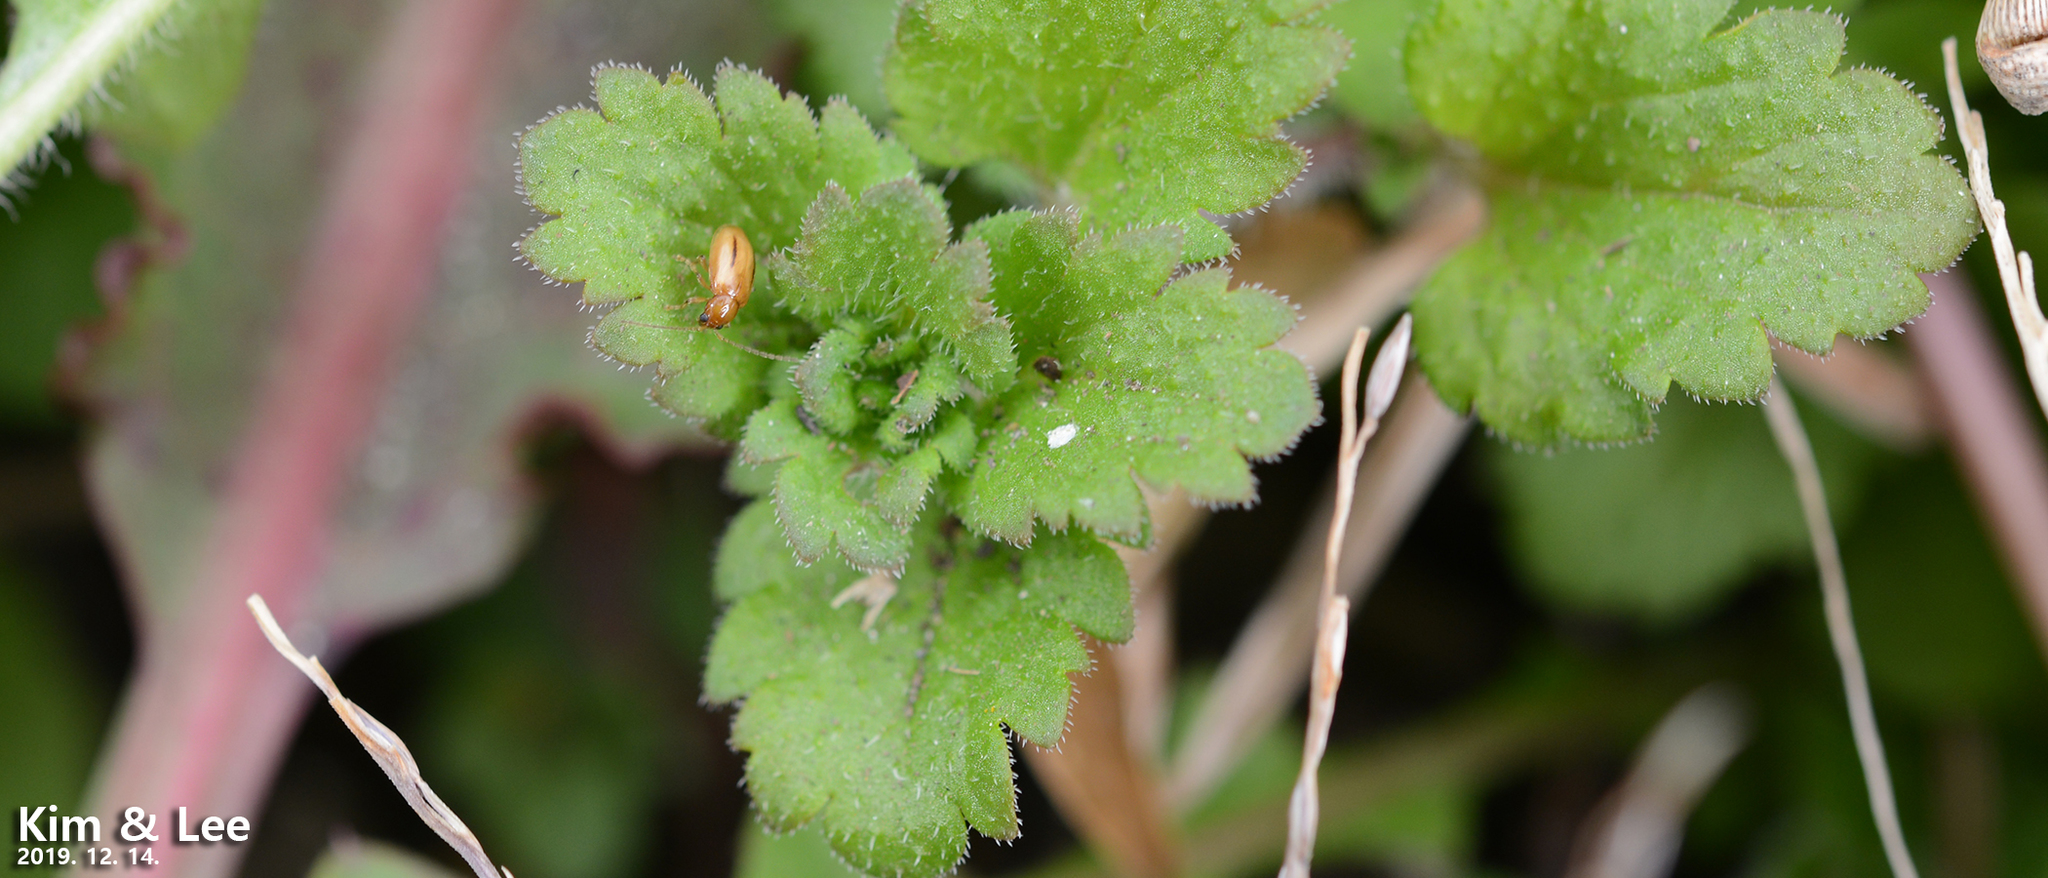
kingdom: Animalia
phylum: Arthropoda
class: Insecta
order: Coleoptera
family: Chrysomelidae
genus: Medythia
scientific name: Medythia
